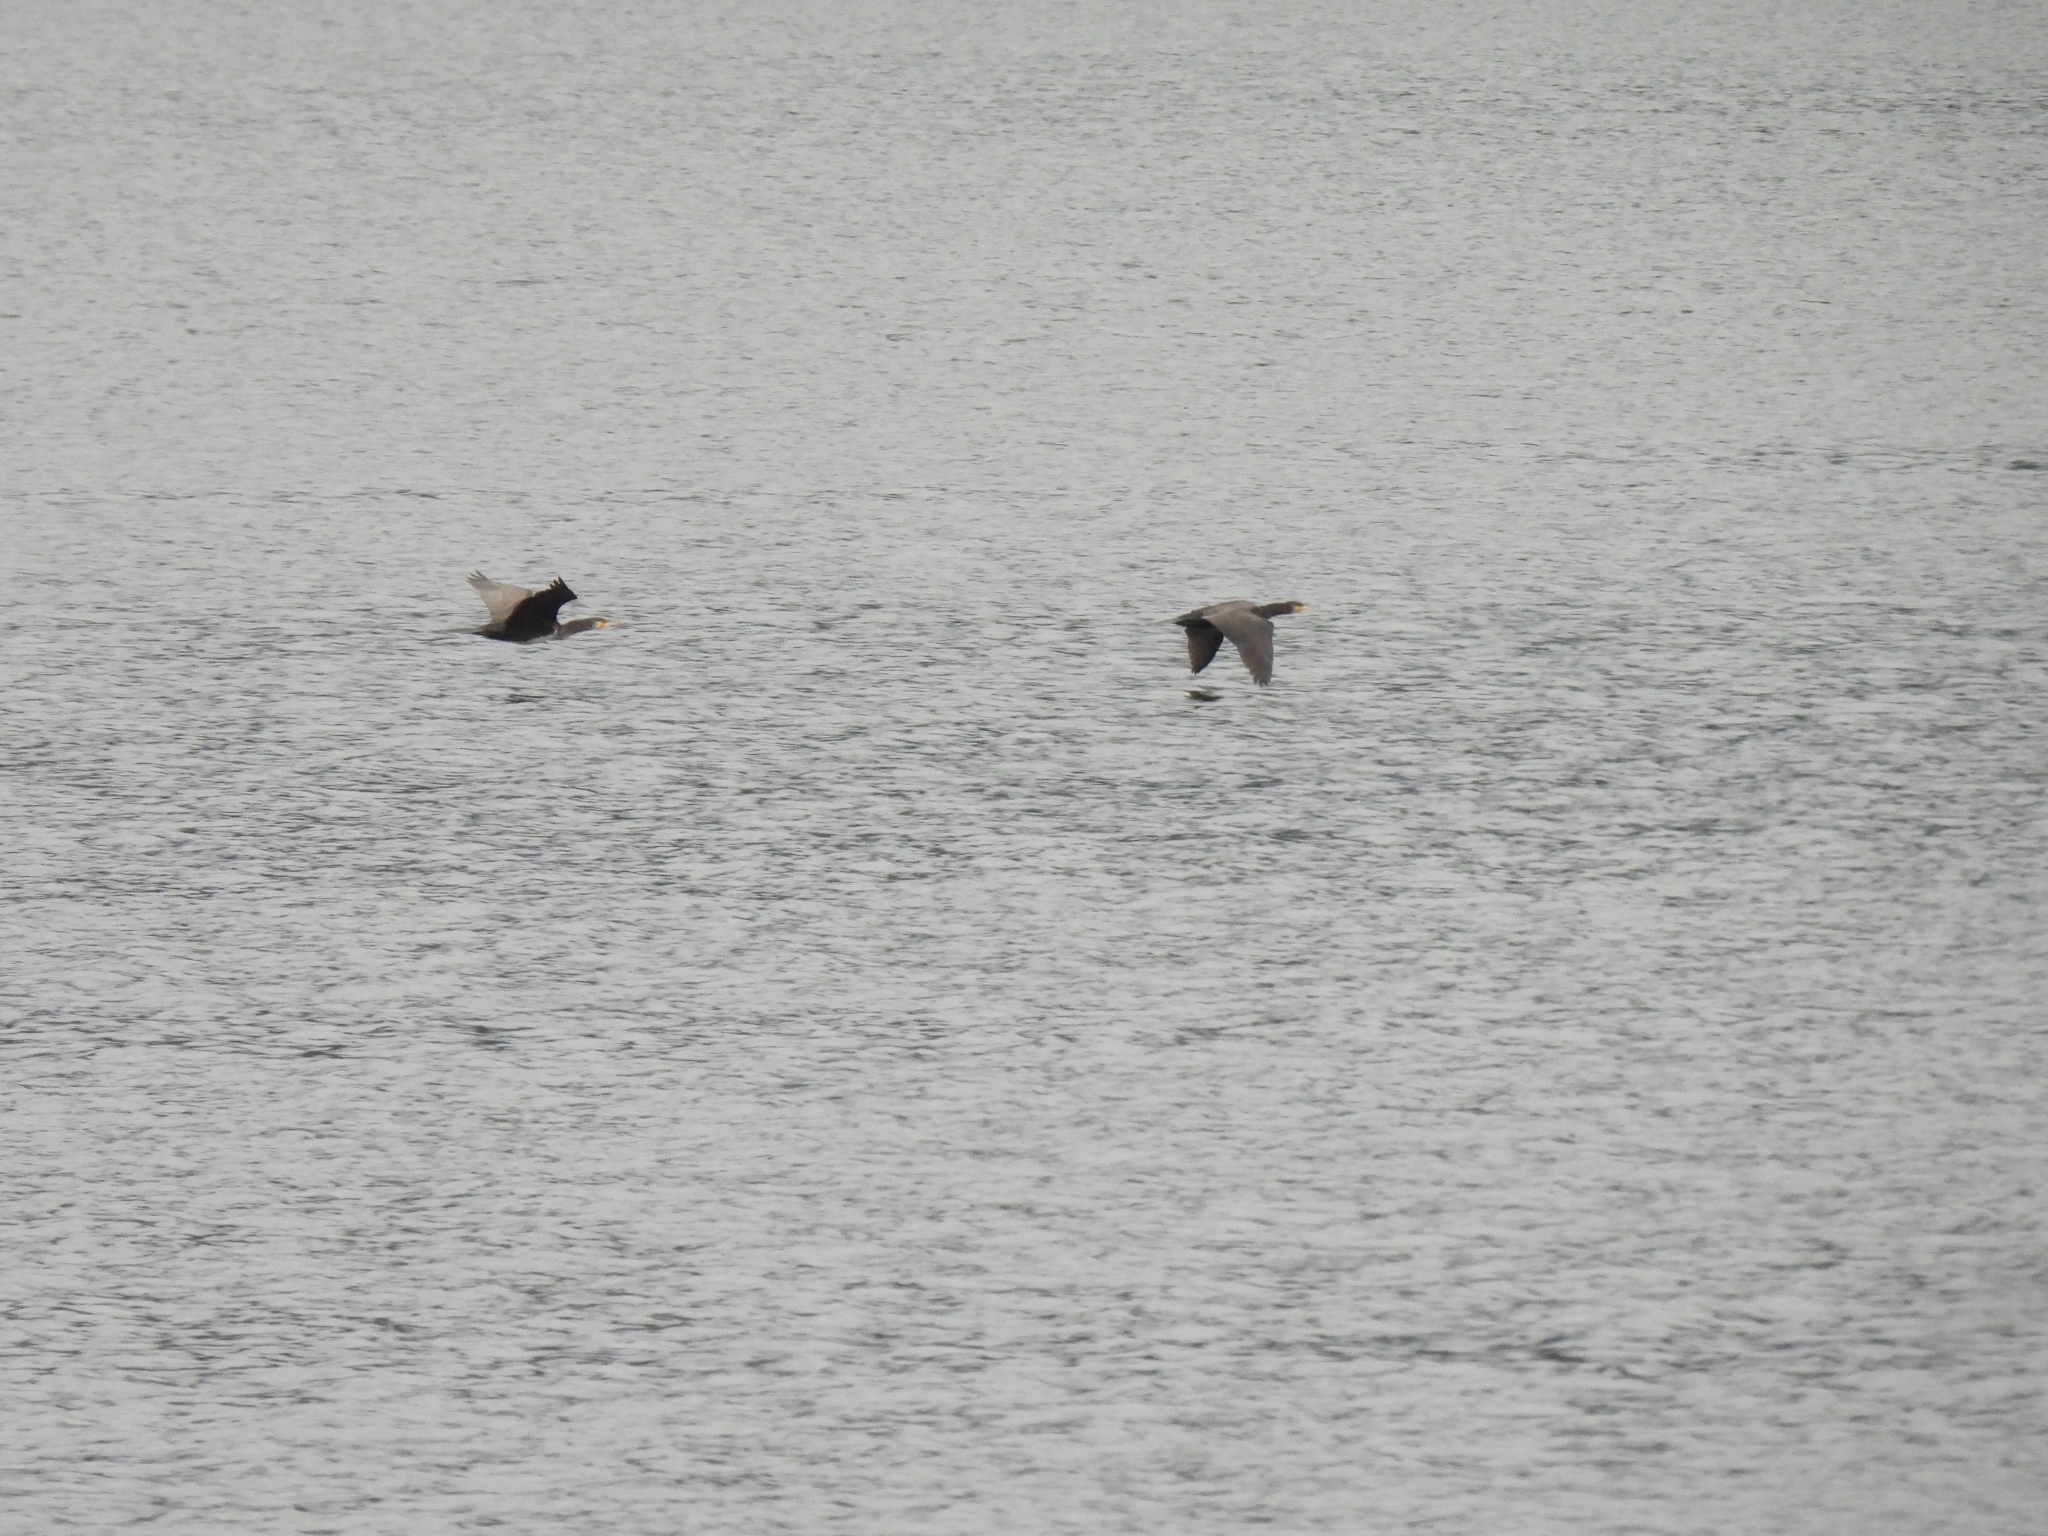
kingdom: Animalia
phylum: Chordata
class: Aves
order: Suliformes
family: Phalacrocoracidae
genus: Phalacrocorax
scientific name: Phalacrocorax carbo
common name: Great cormorant
